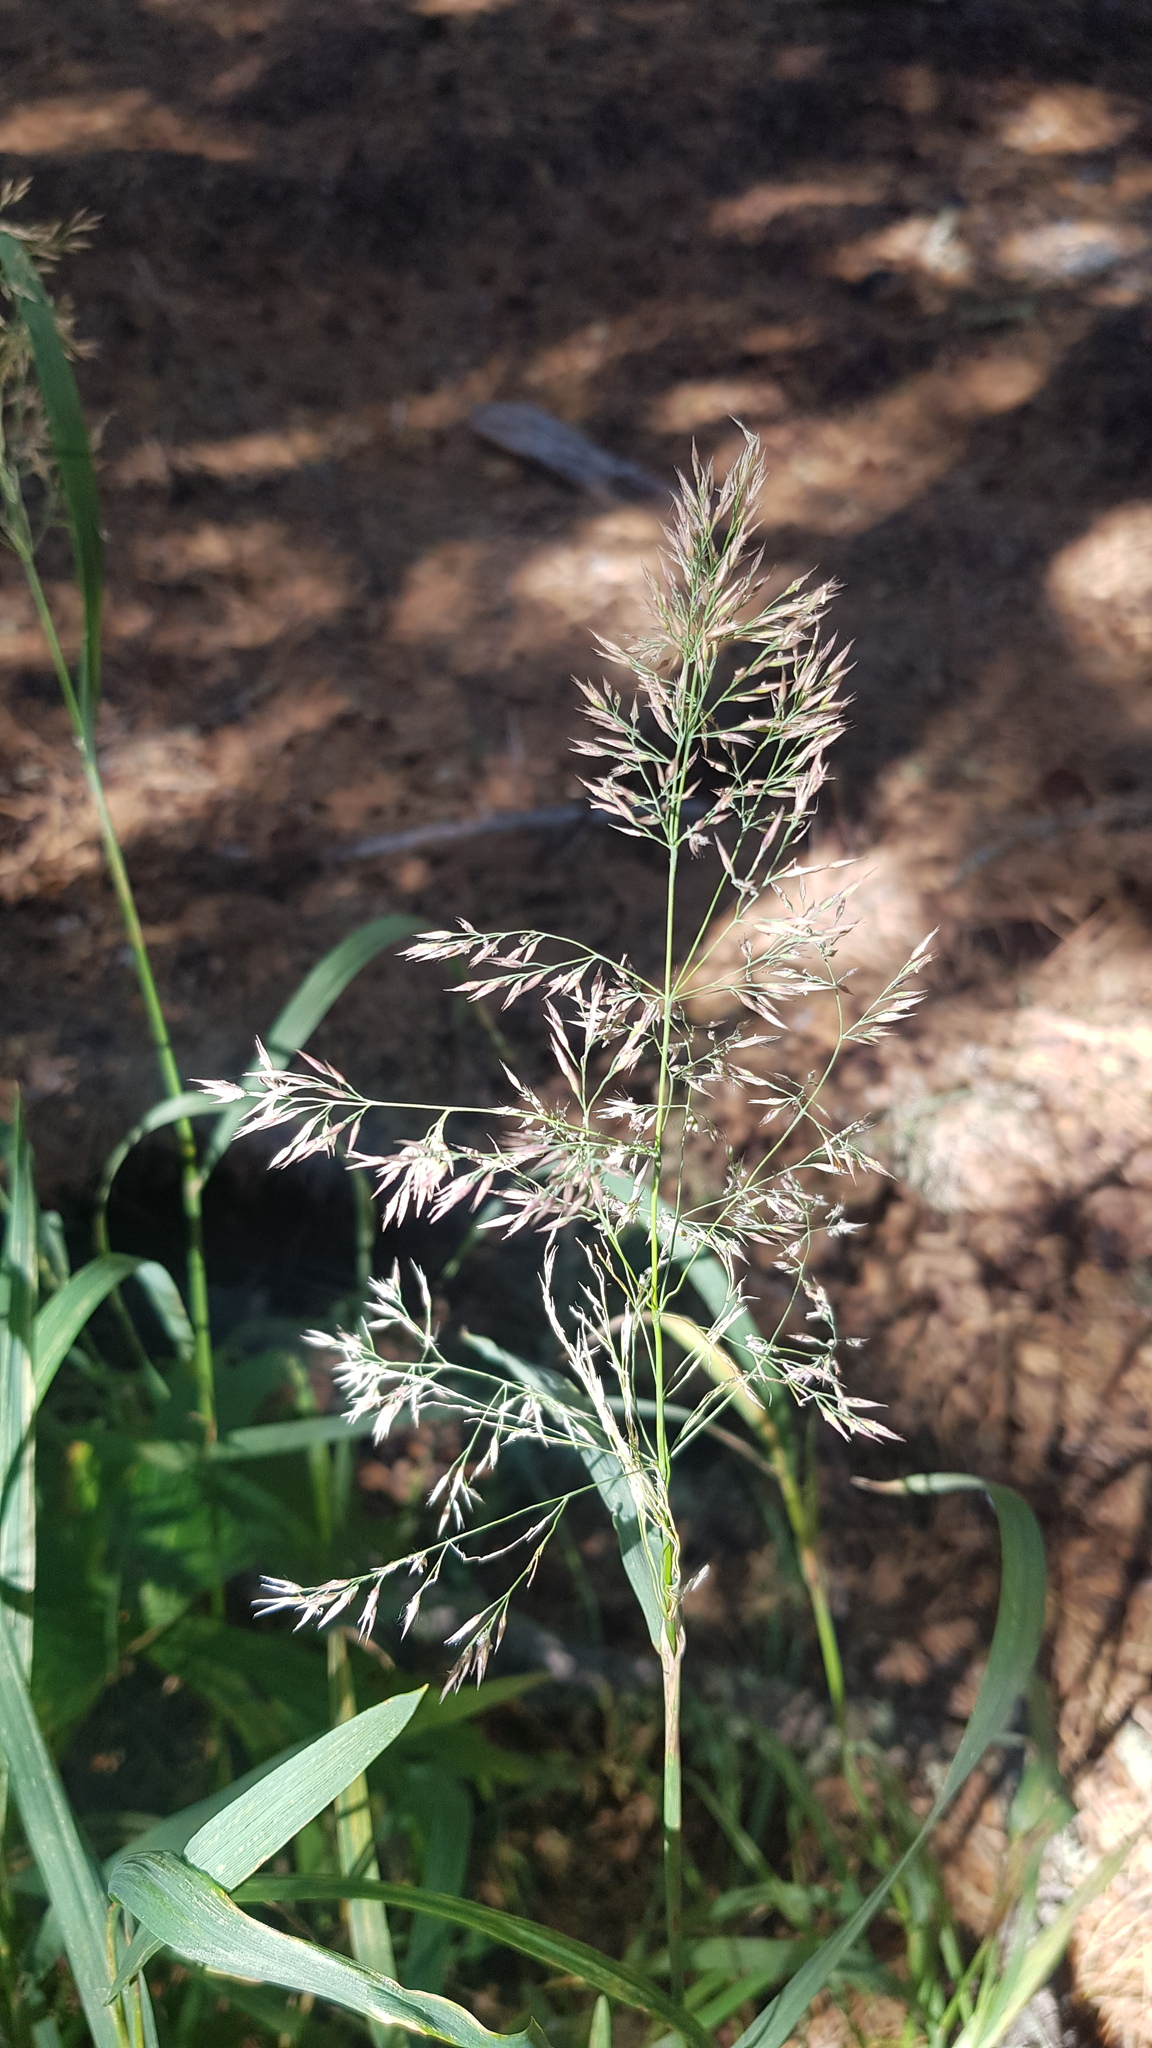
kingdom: Plantae
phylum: Tracheophyta
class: Liliopsida
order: Poales
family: Poaceae
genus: Agrostis
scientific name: Agrostis gigantea
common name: Black bent
